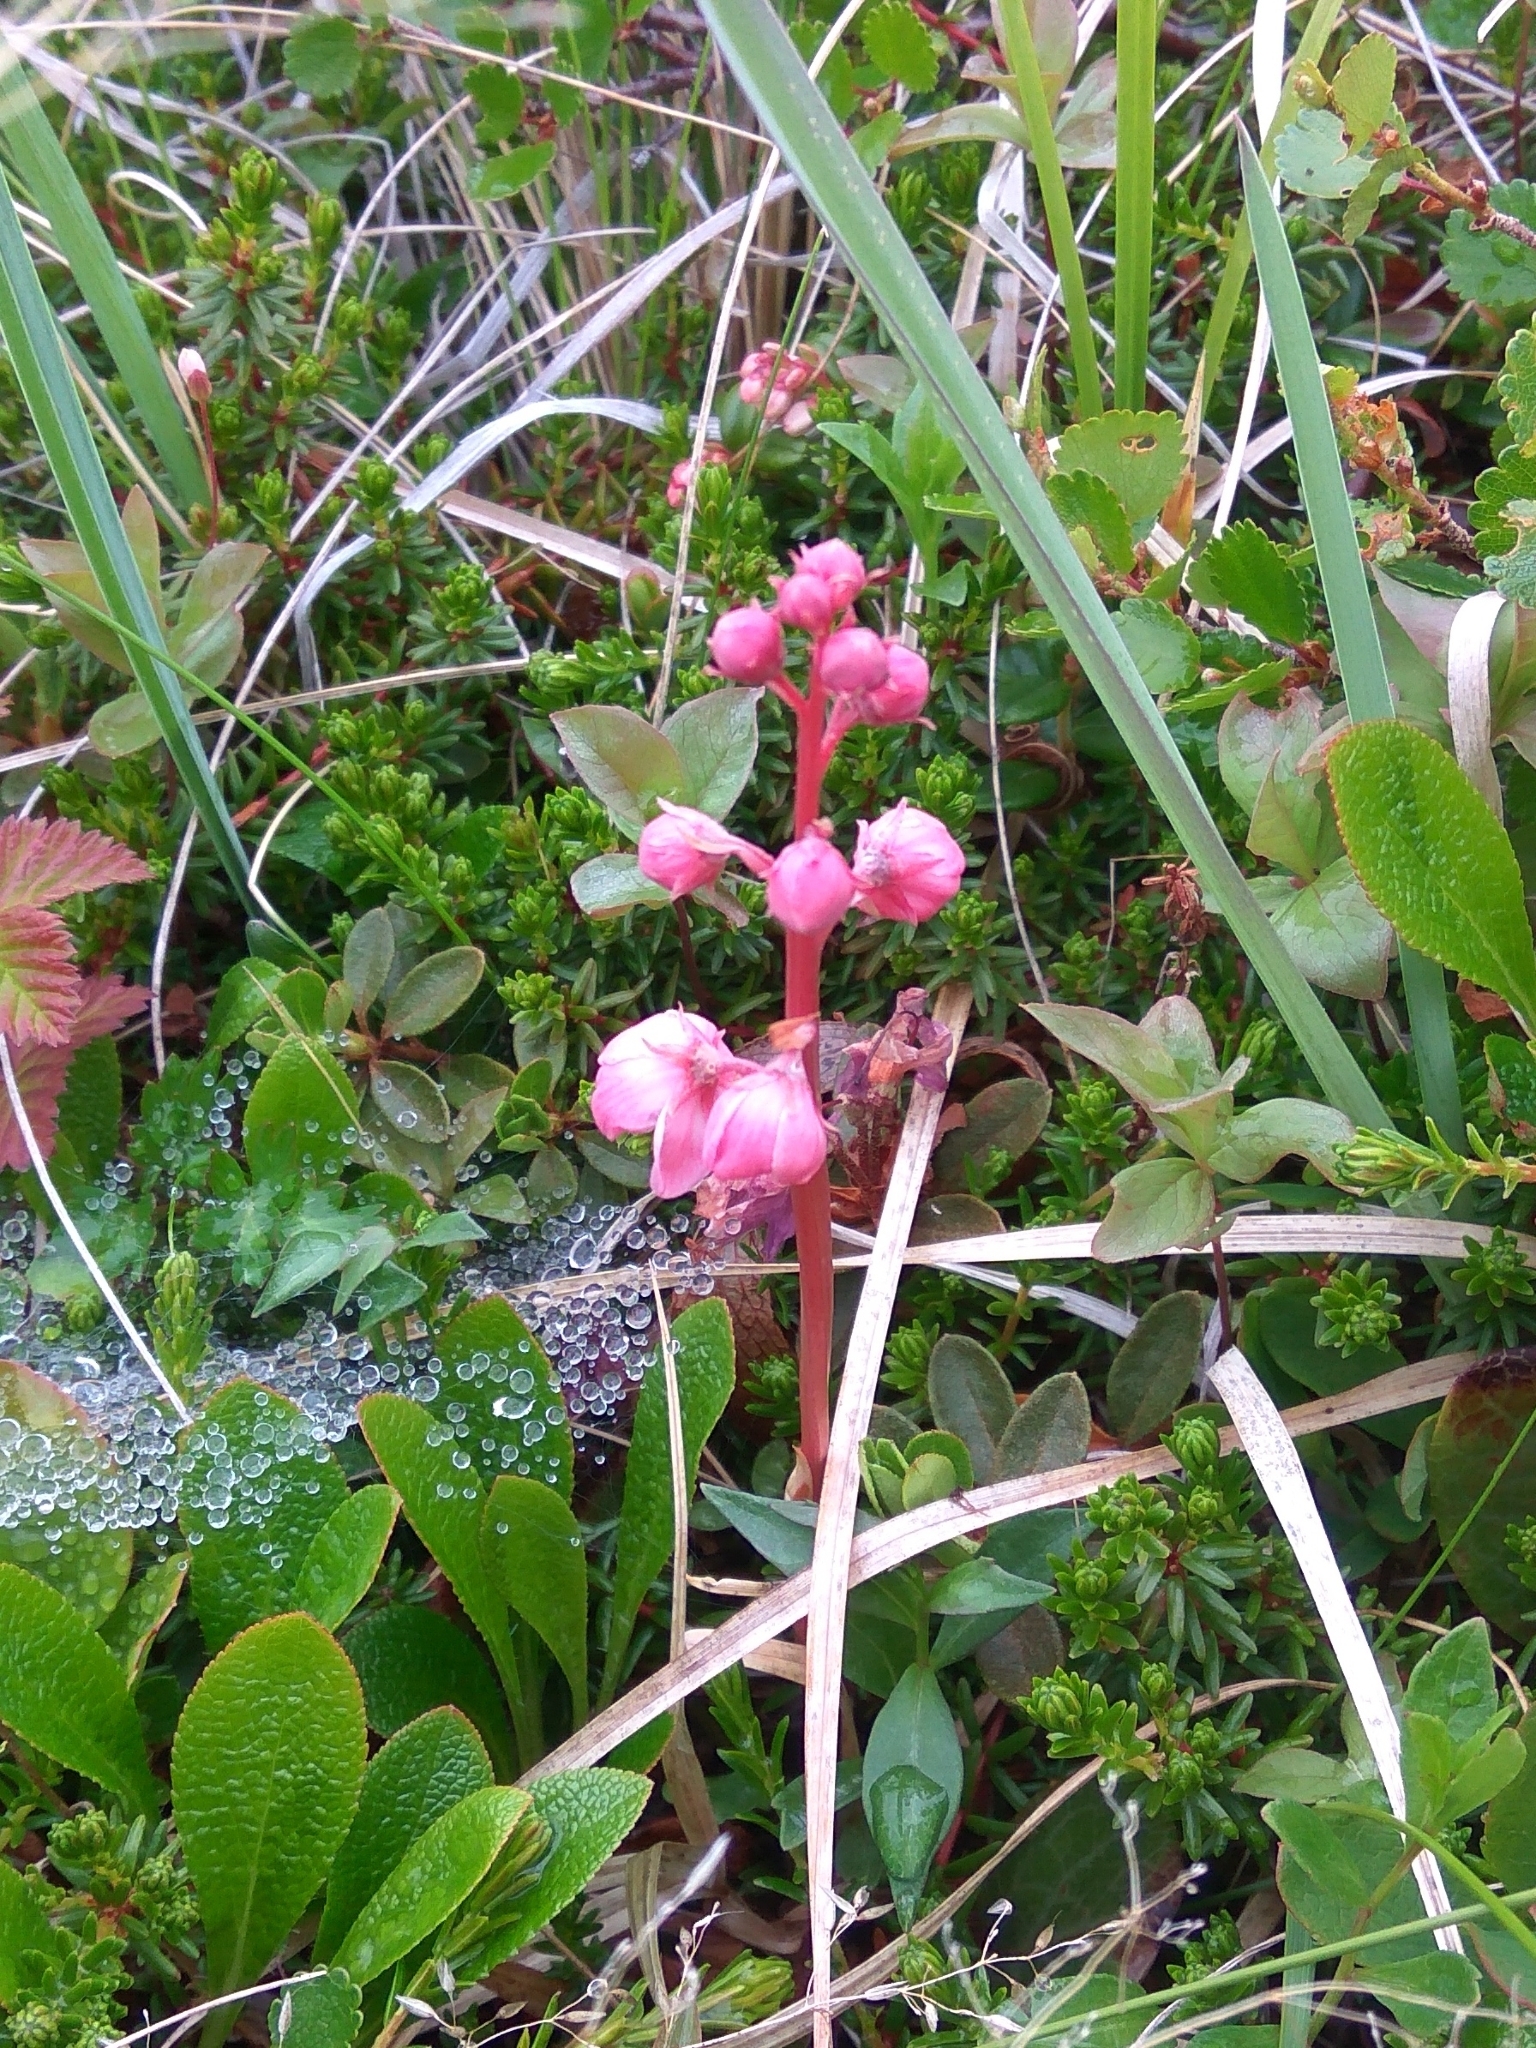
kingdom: Plantae
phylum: Tracheophyta
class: Magnoliopsida
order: Ericales
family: Ericaceae
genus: Pyrola
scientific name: Pyrola asarifolia
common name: Bog wintergreen
